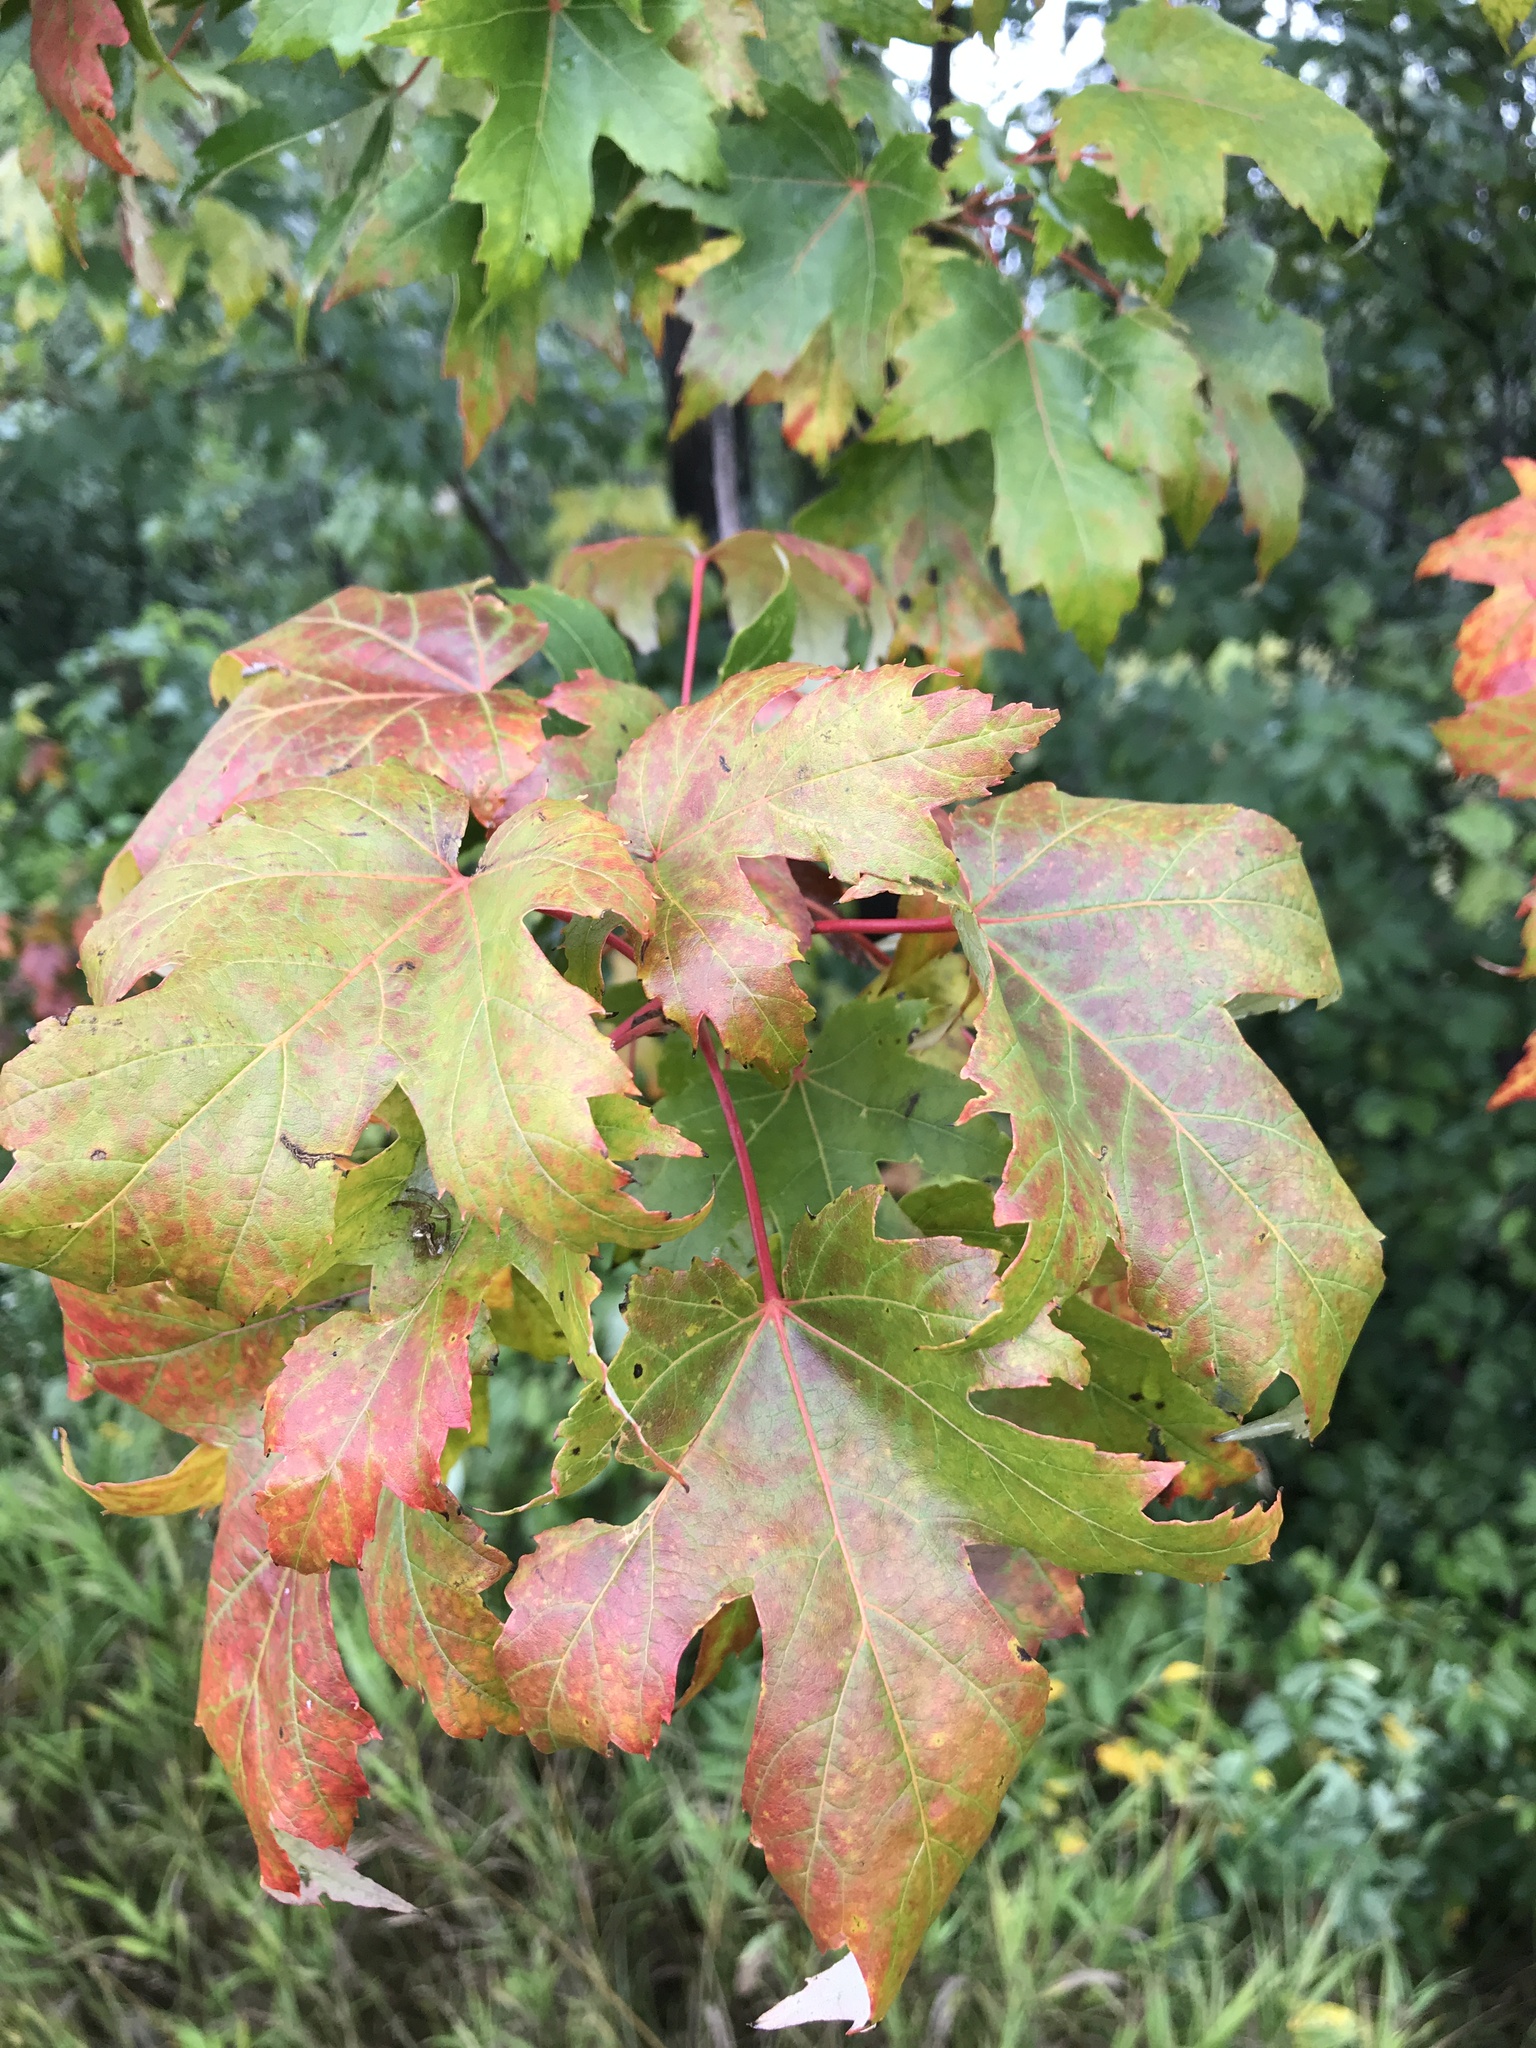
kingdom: Plantae
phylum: Tracheophyta
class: Magnoliopsida
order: Sapindales
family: Sapindaceae
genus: Acer
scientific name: Acer freemanii
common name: Freeman maple
